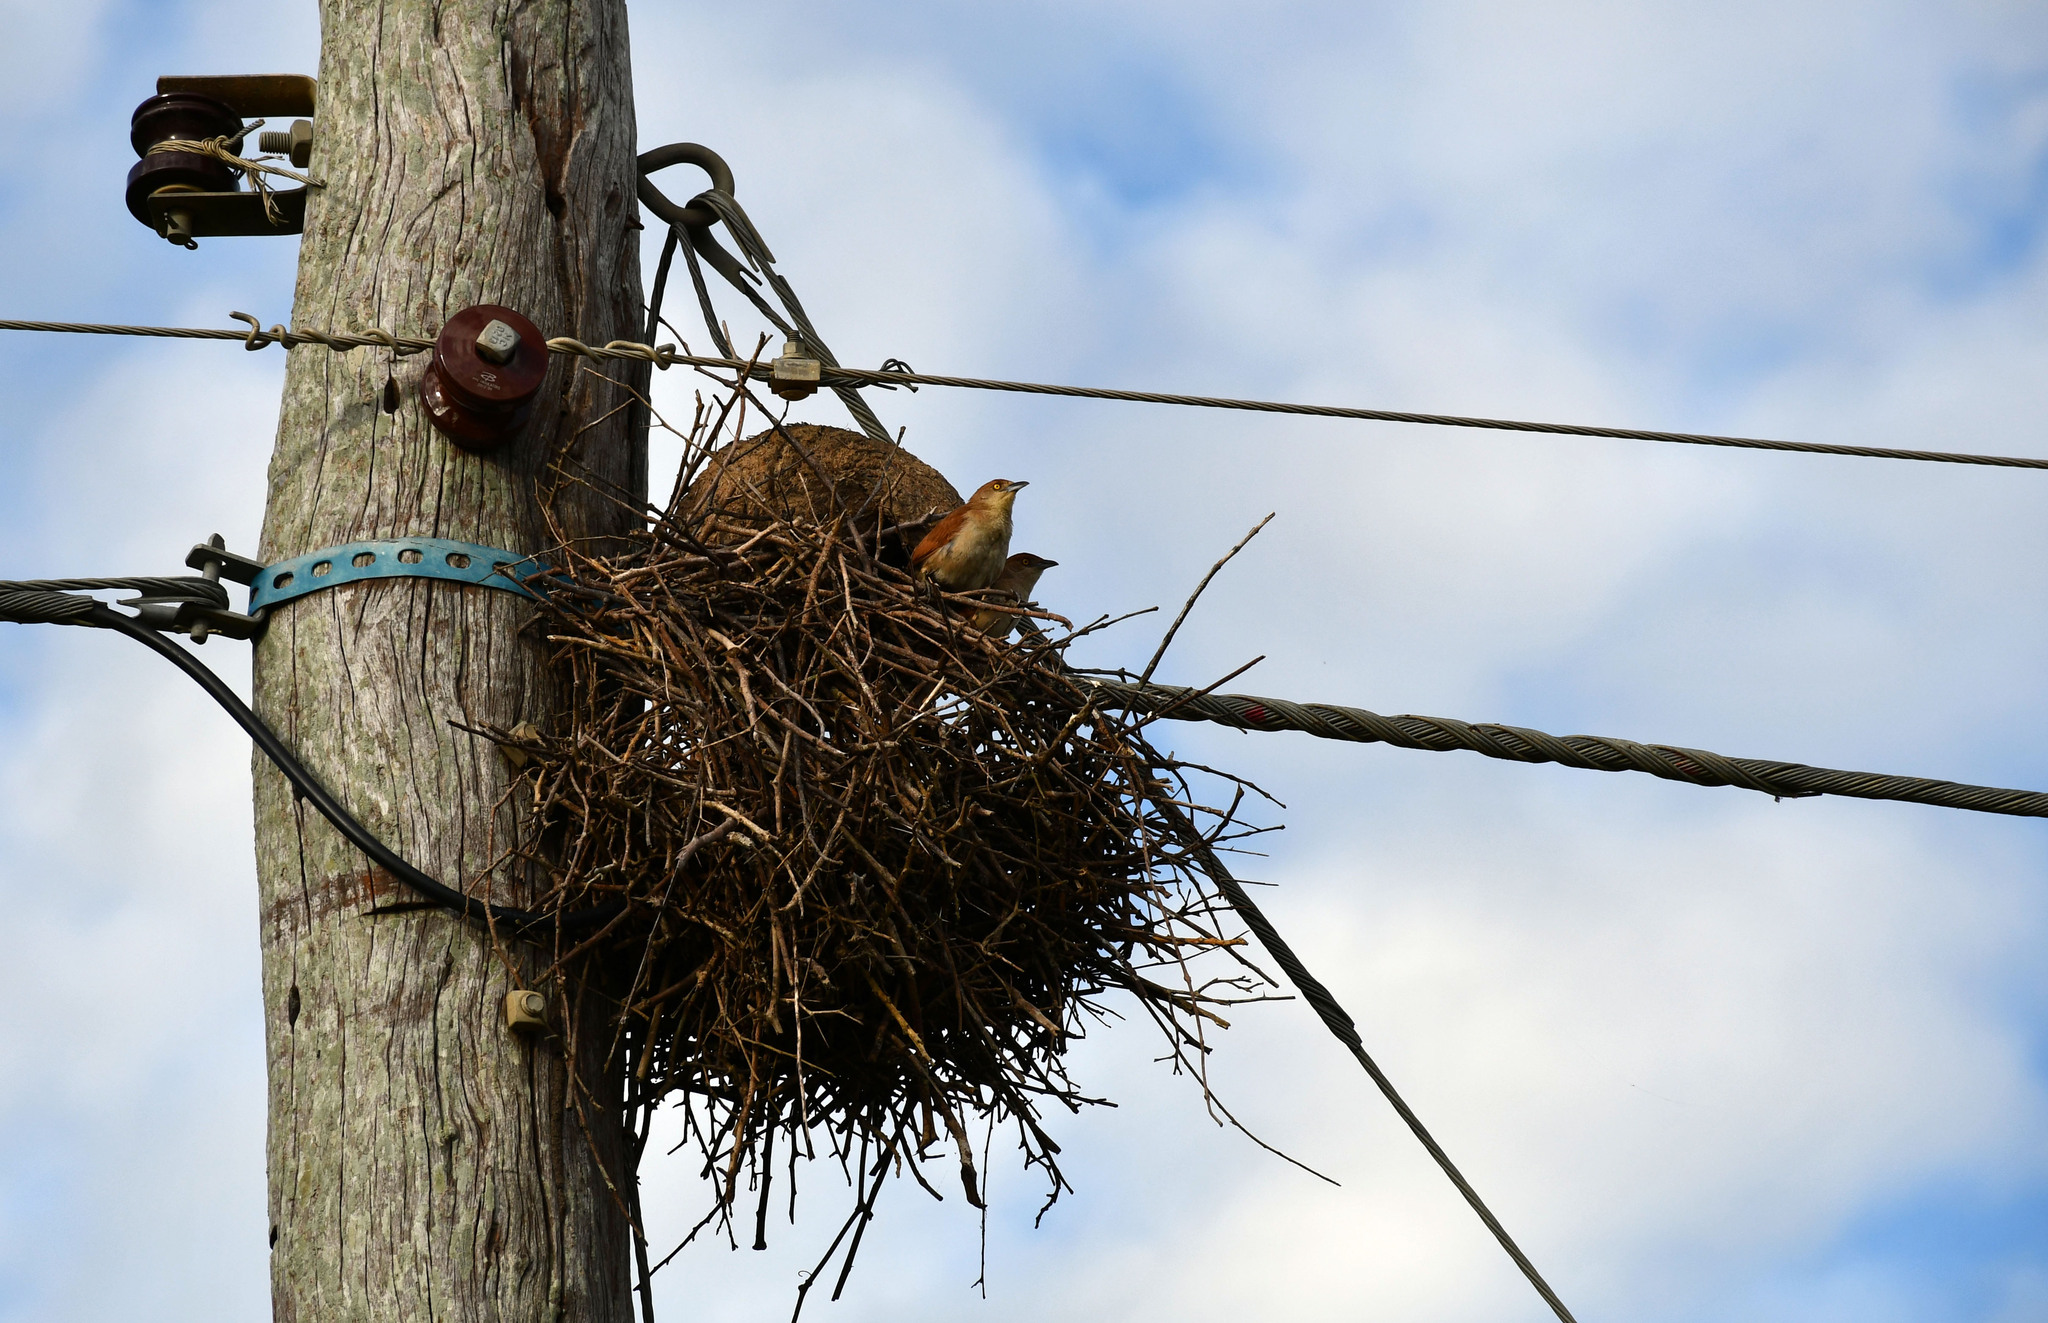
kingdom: Animalia
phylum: Chordata
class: Aves
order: Passeriformes
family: Furnariidae
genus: Phacellodomus
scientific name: Phacellodomus ruber
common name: Greater thornbird
